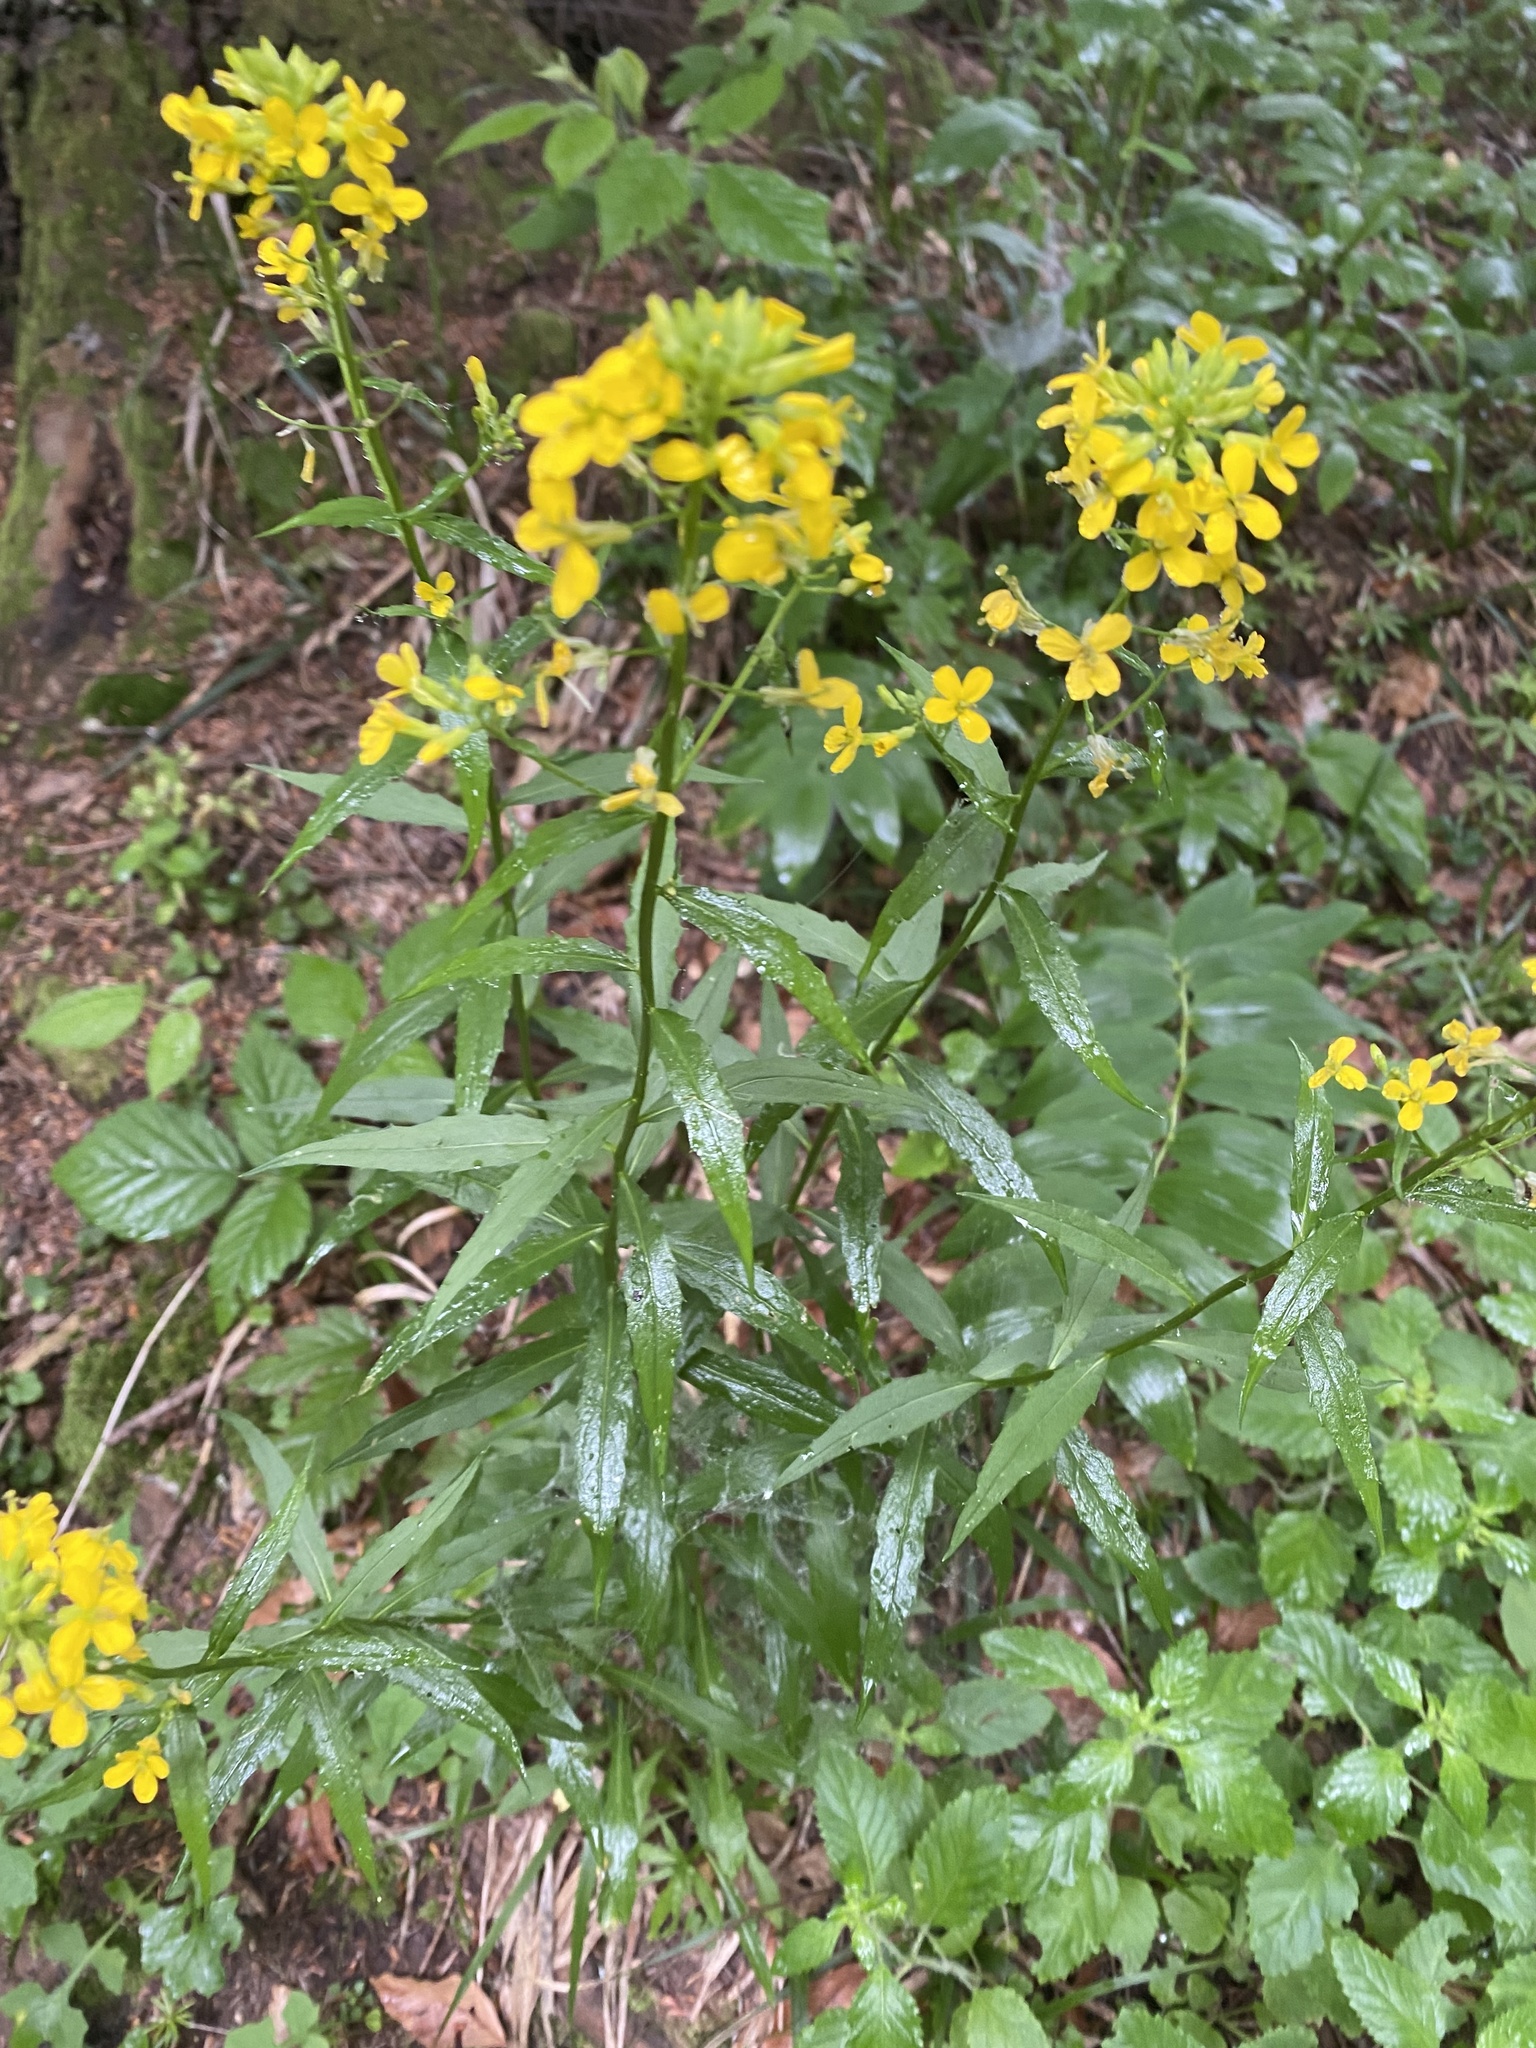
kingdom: Plantae
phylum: Tracheophyta
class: Magnoliopsida
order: Brassicales
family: Brassicaceae
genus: Erysimum
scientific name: Erysimum aureum
